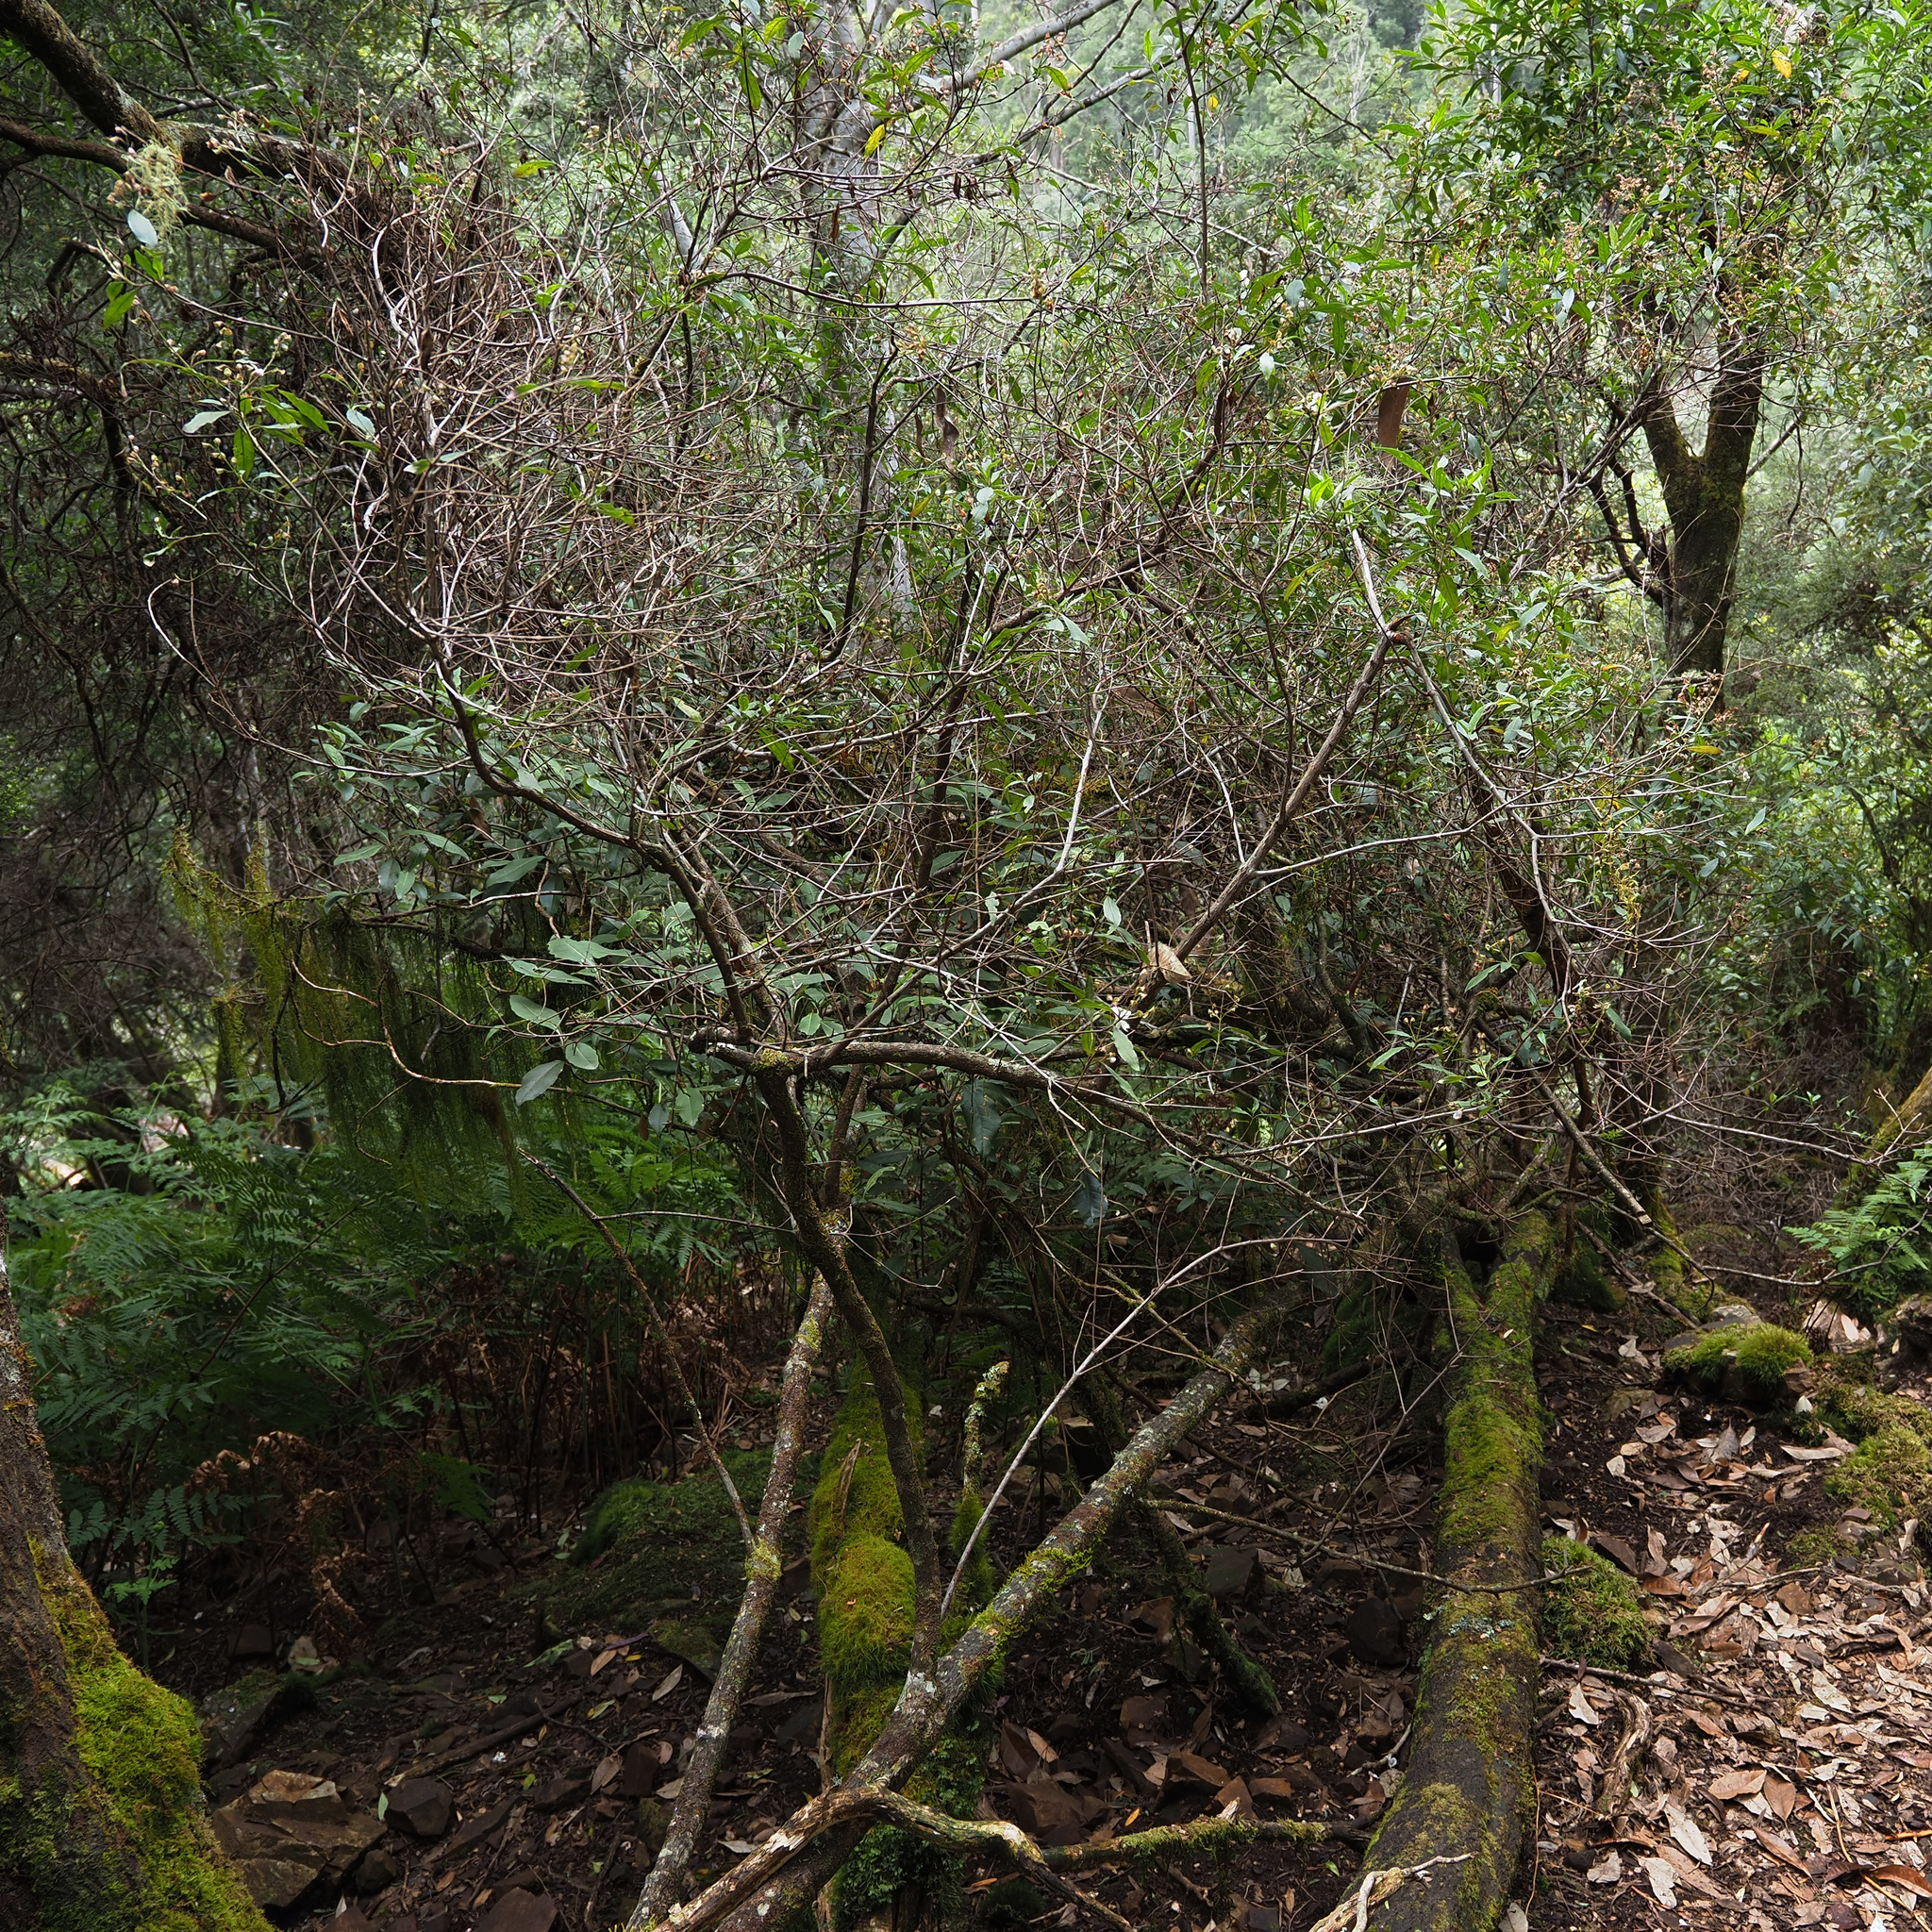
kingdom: Plantae
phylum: Tracheophyta
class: Magnoliopsida
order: Lamiales
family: Lamiaceae
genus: Prostanthera
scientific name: Prostanthera lasianthos
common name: Mountain-lilac
